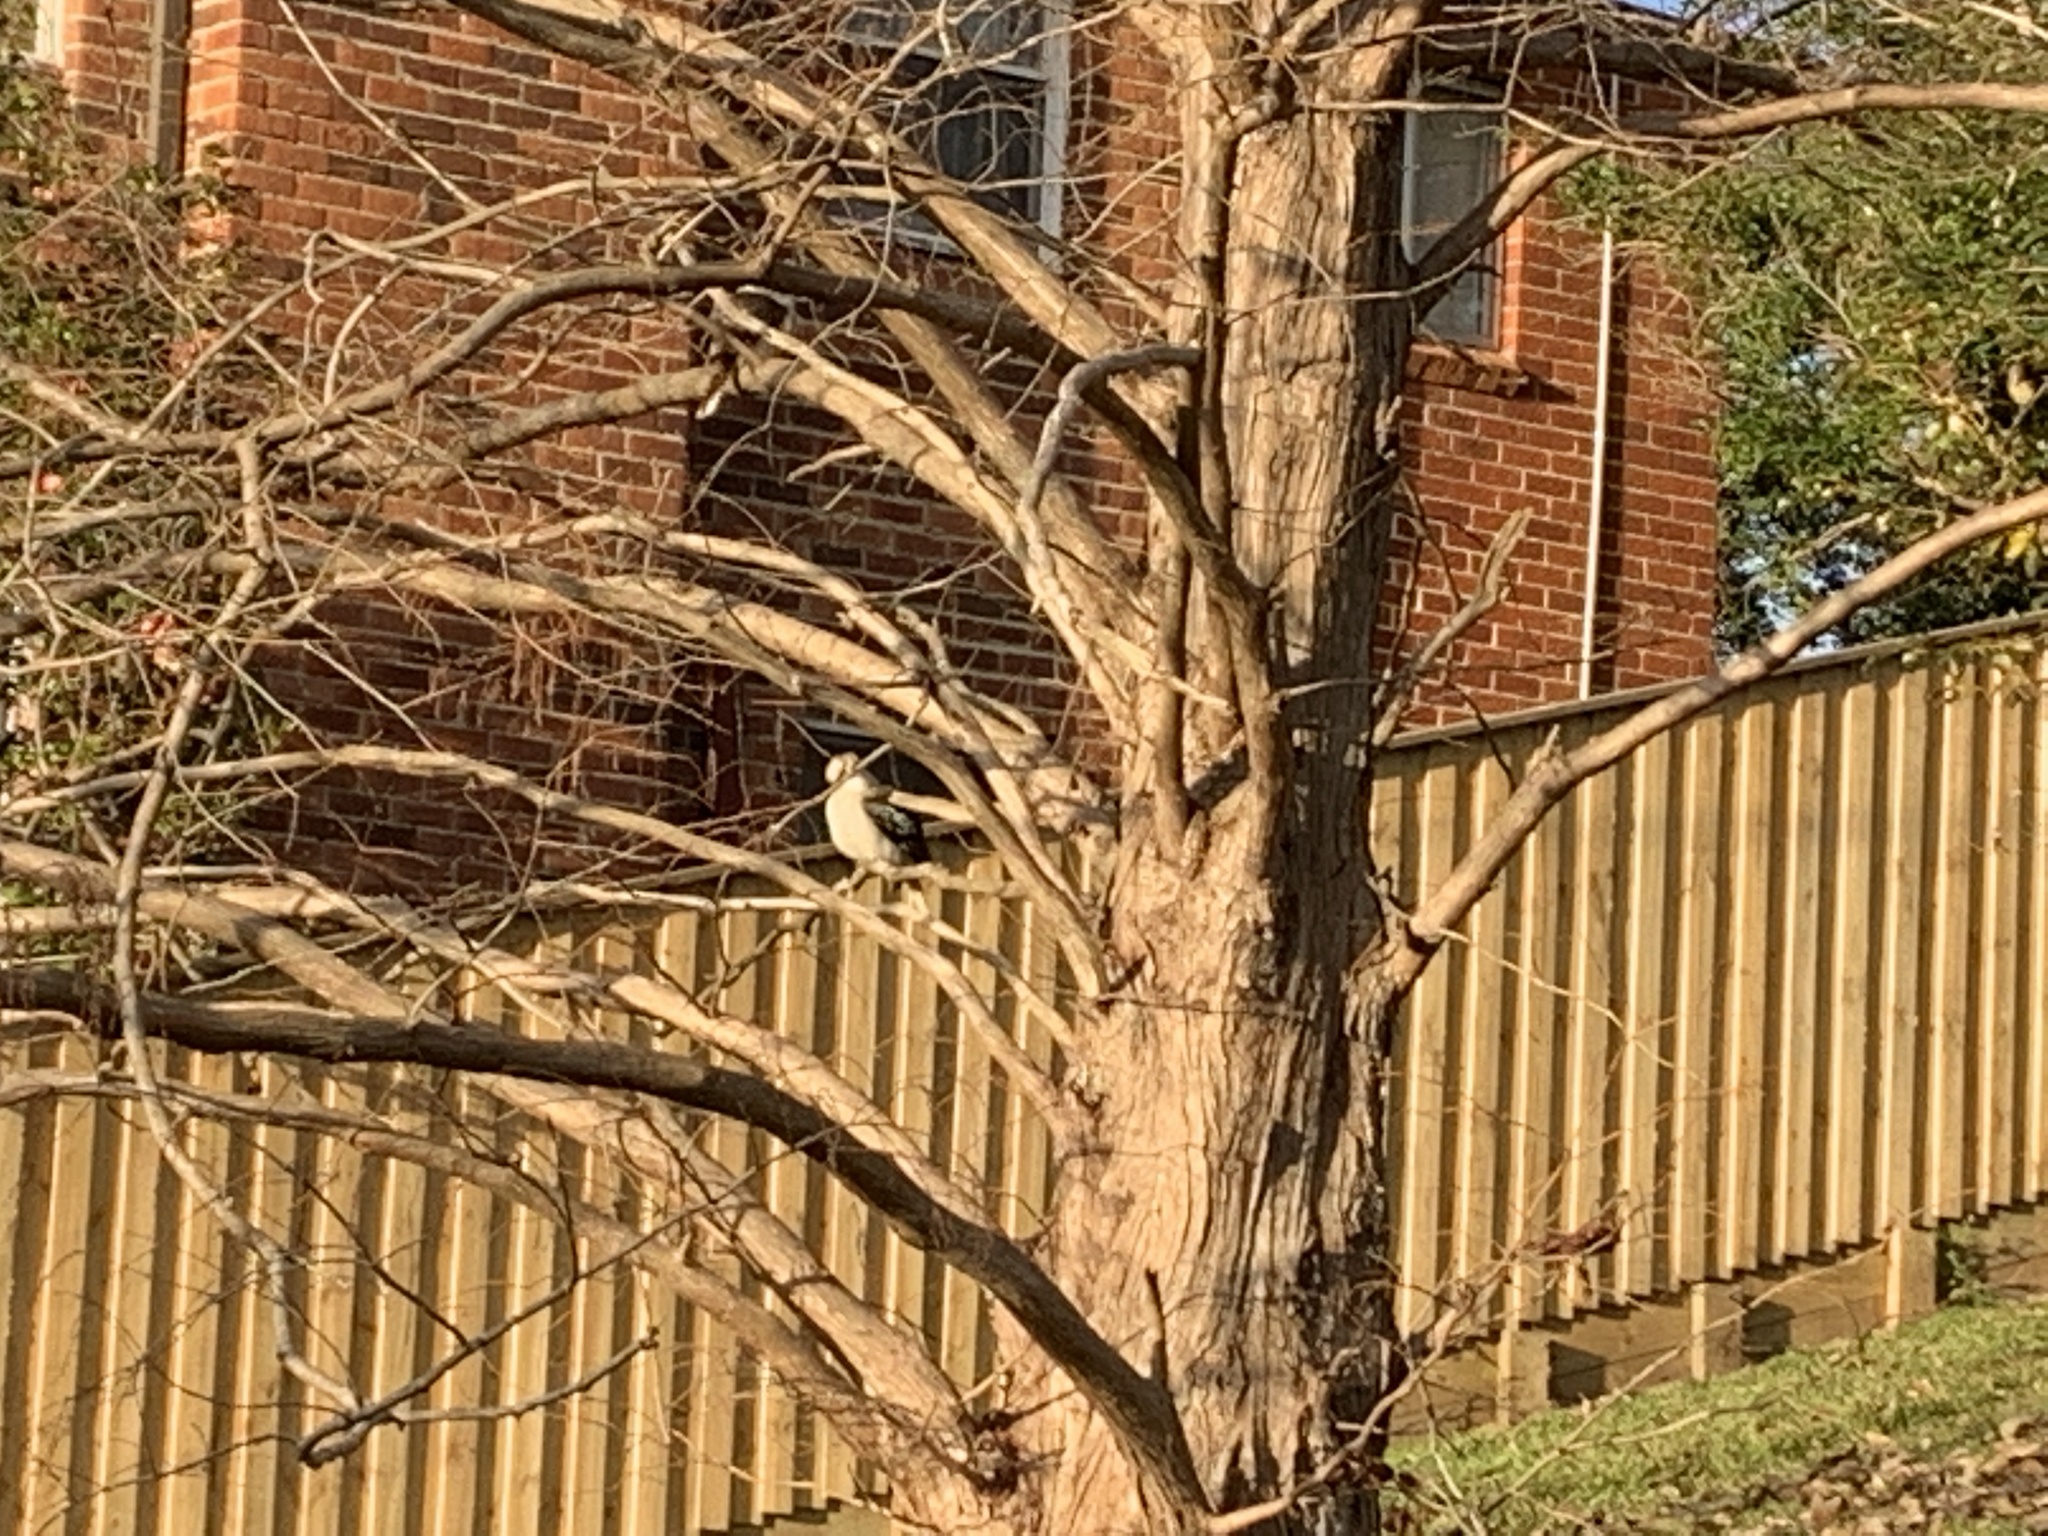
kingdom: Animalia
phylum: Chordata
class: Aves
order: Coraciiformes
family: Alcedinidae
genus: Dacelo
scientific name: Dacelo novaeguineae
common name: Laughing kookaburra
